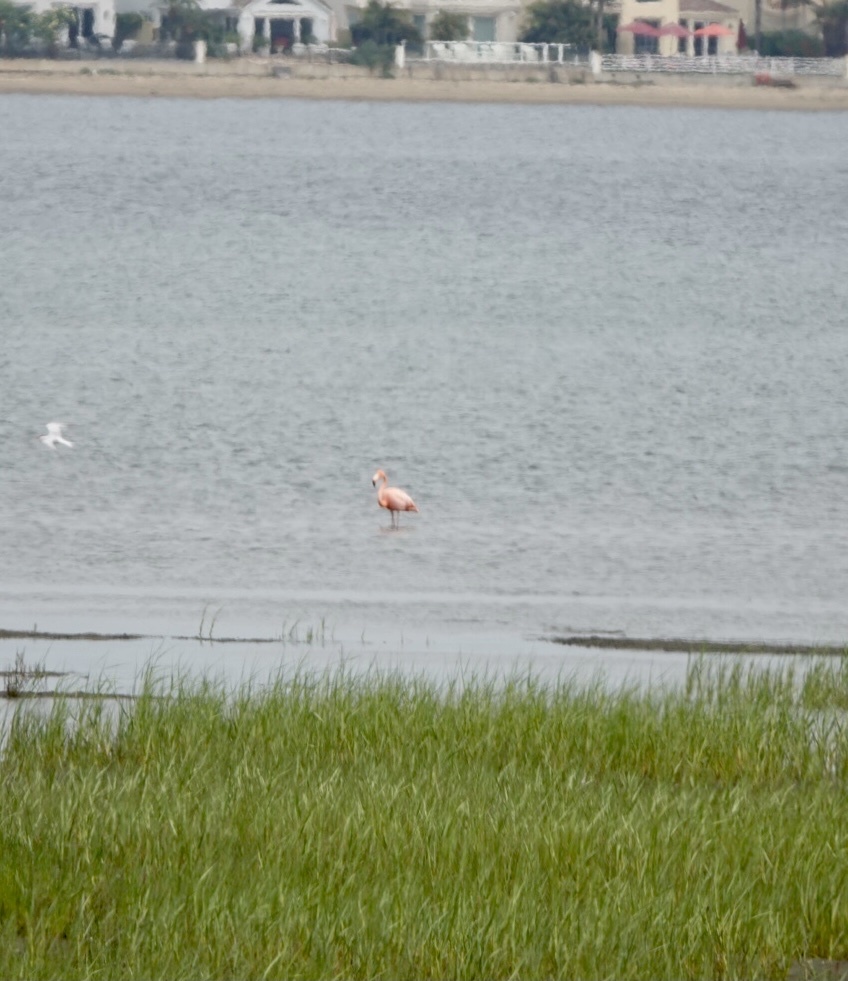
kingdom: Animalia
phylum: Chordata
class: Aves
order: Phoenicopteriformes
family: Phoenicopteridae
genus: Phoenicopterus
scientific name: Phoenicopterus ruber
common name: American flamingo
